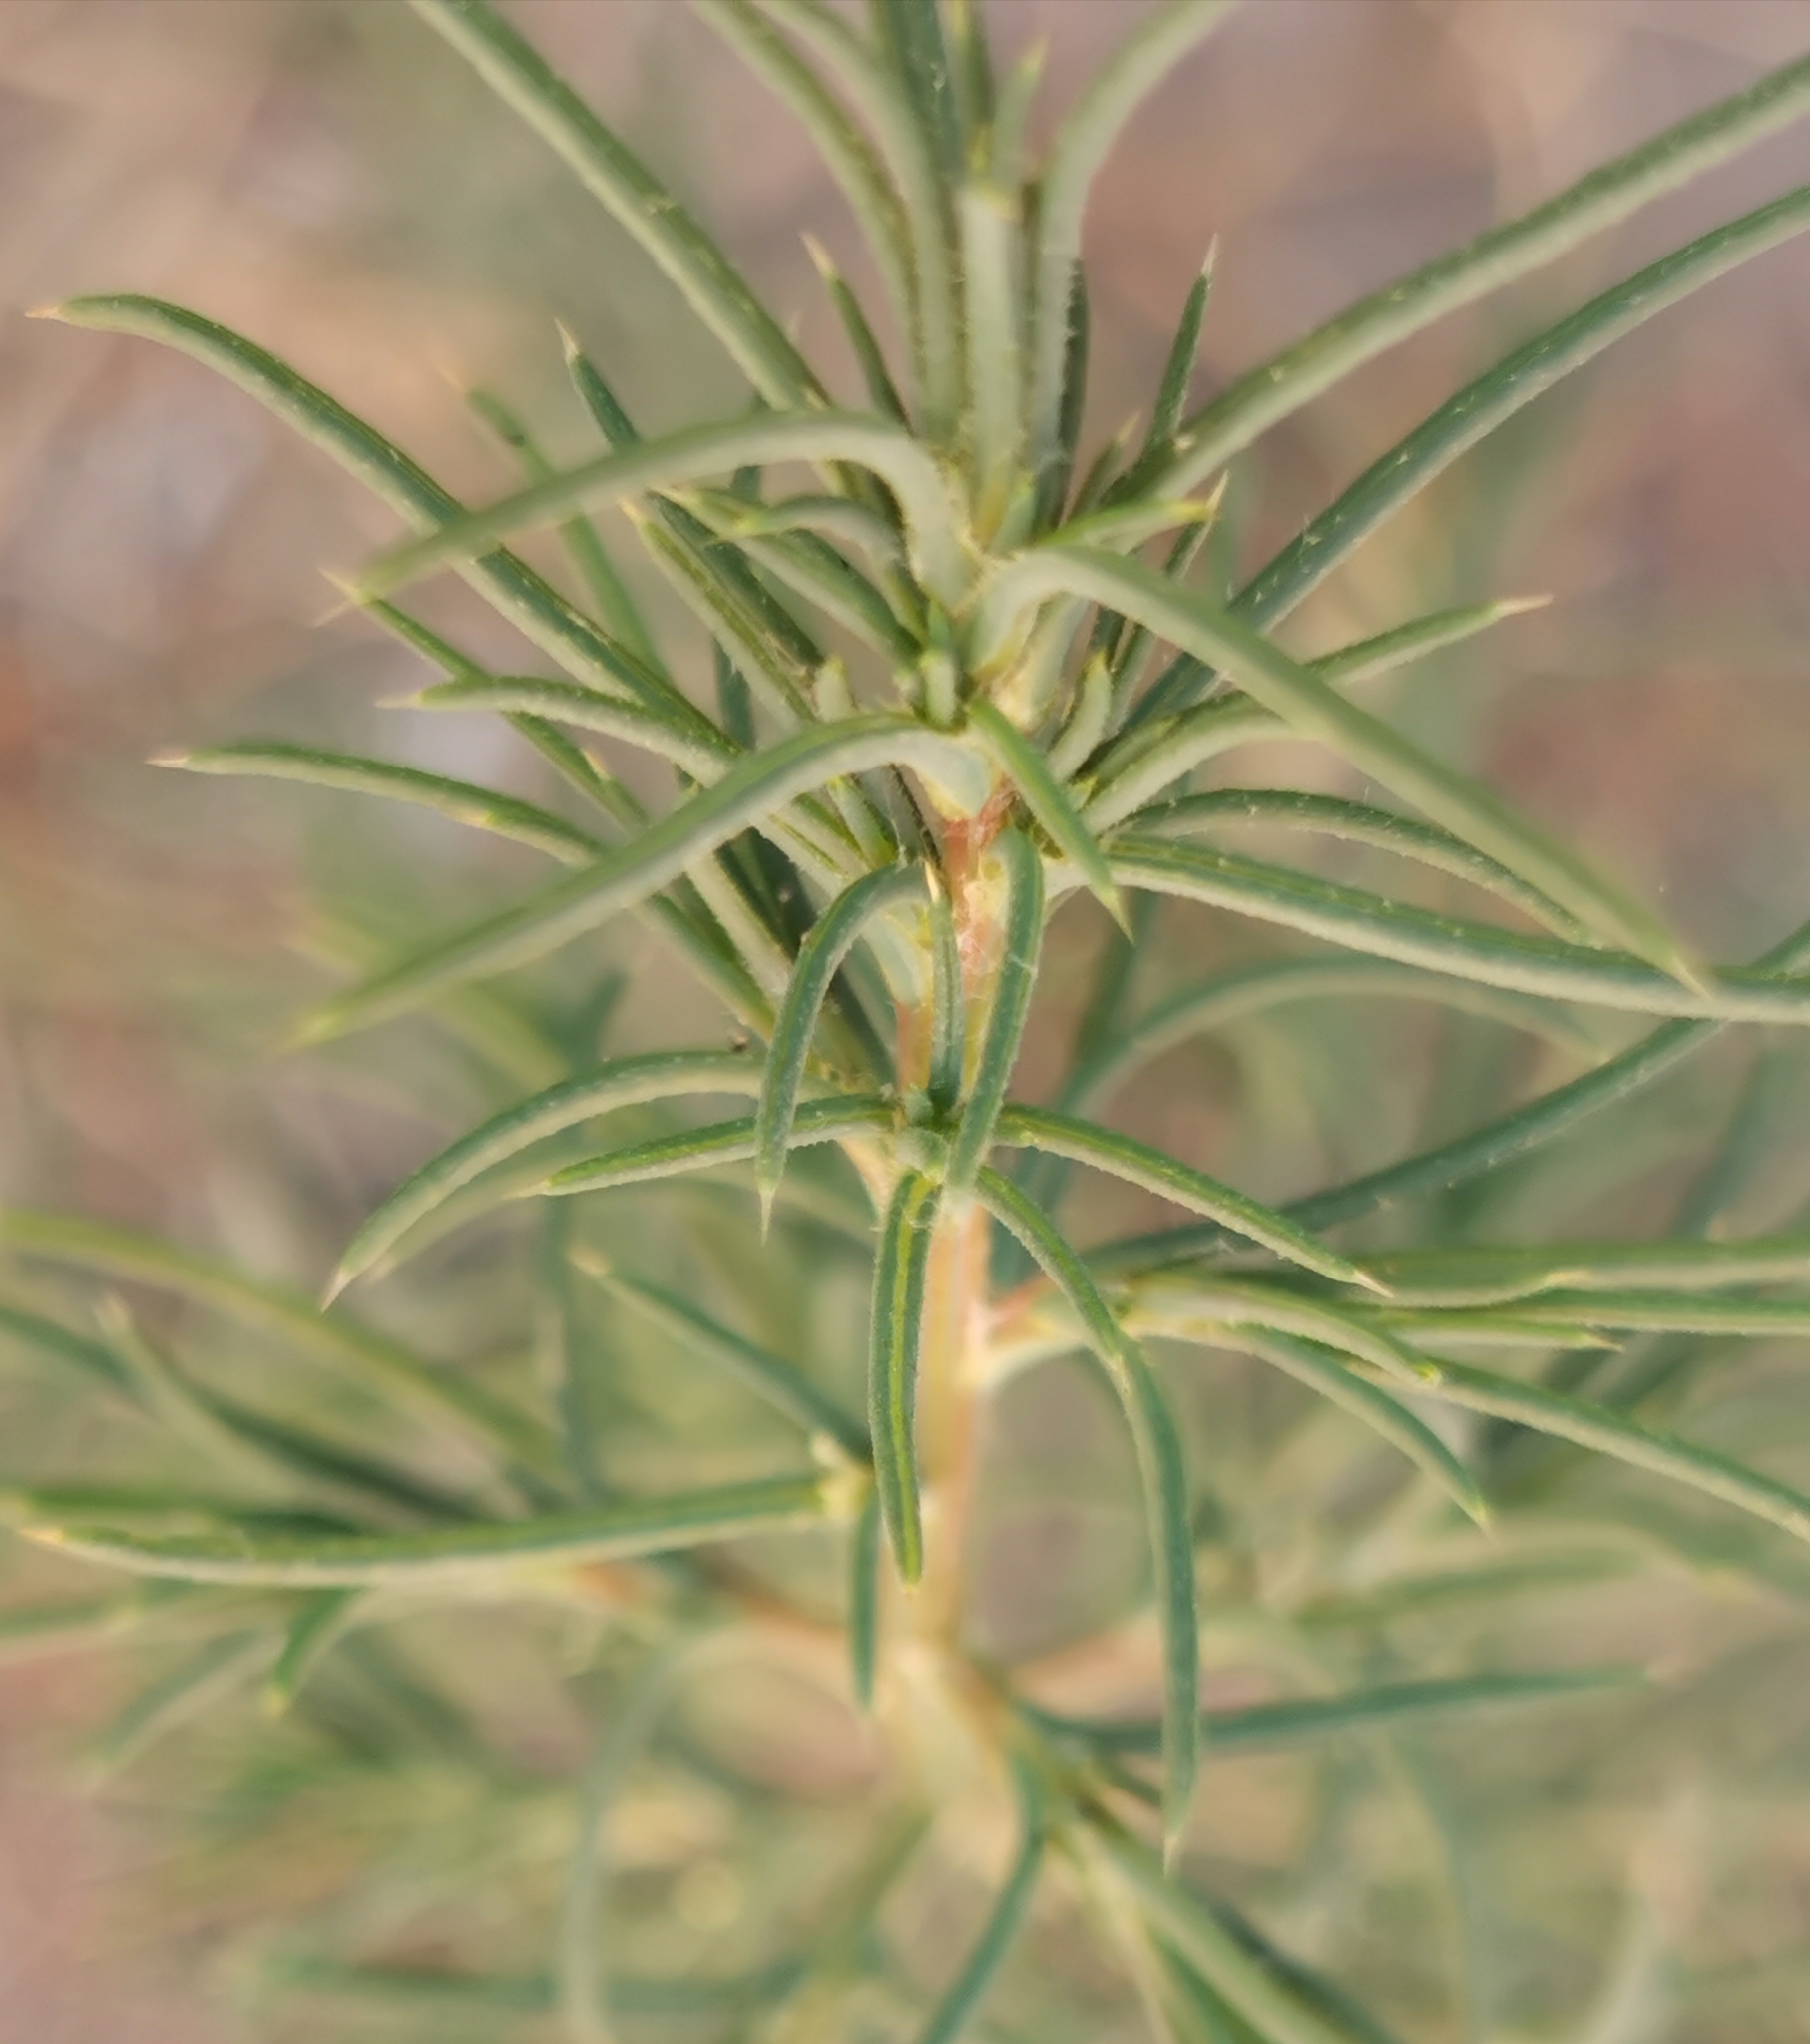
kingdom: Plantae
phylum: Tracheophyta
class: Magnoliopsida
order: Caryophyllales
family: Amaranthaceae
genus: Salsola
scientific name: Salsola tragus
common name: Prickly russian thistle
